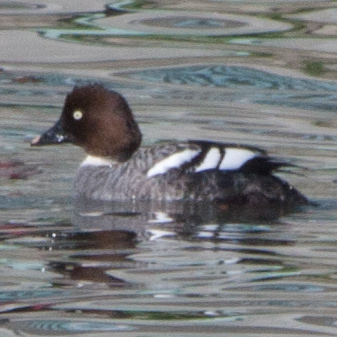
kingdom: Animalia
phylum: Chordata
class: Aves
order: Anseriformes
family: Anatidae
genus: Bucephala
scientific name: Bucephala clangula
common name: Common goldeneye
